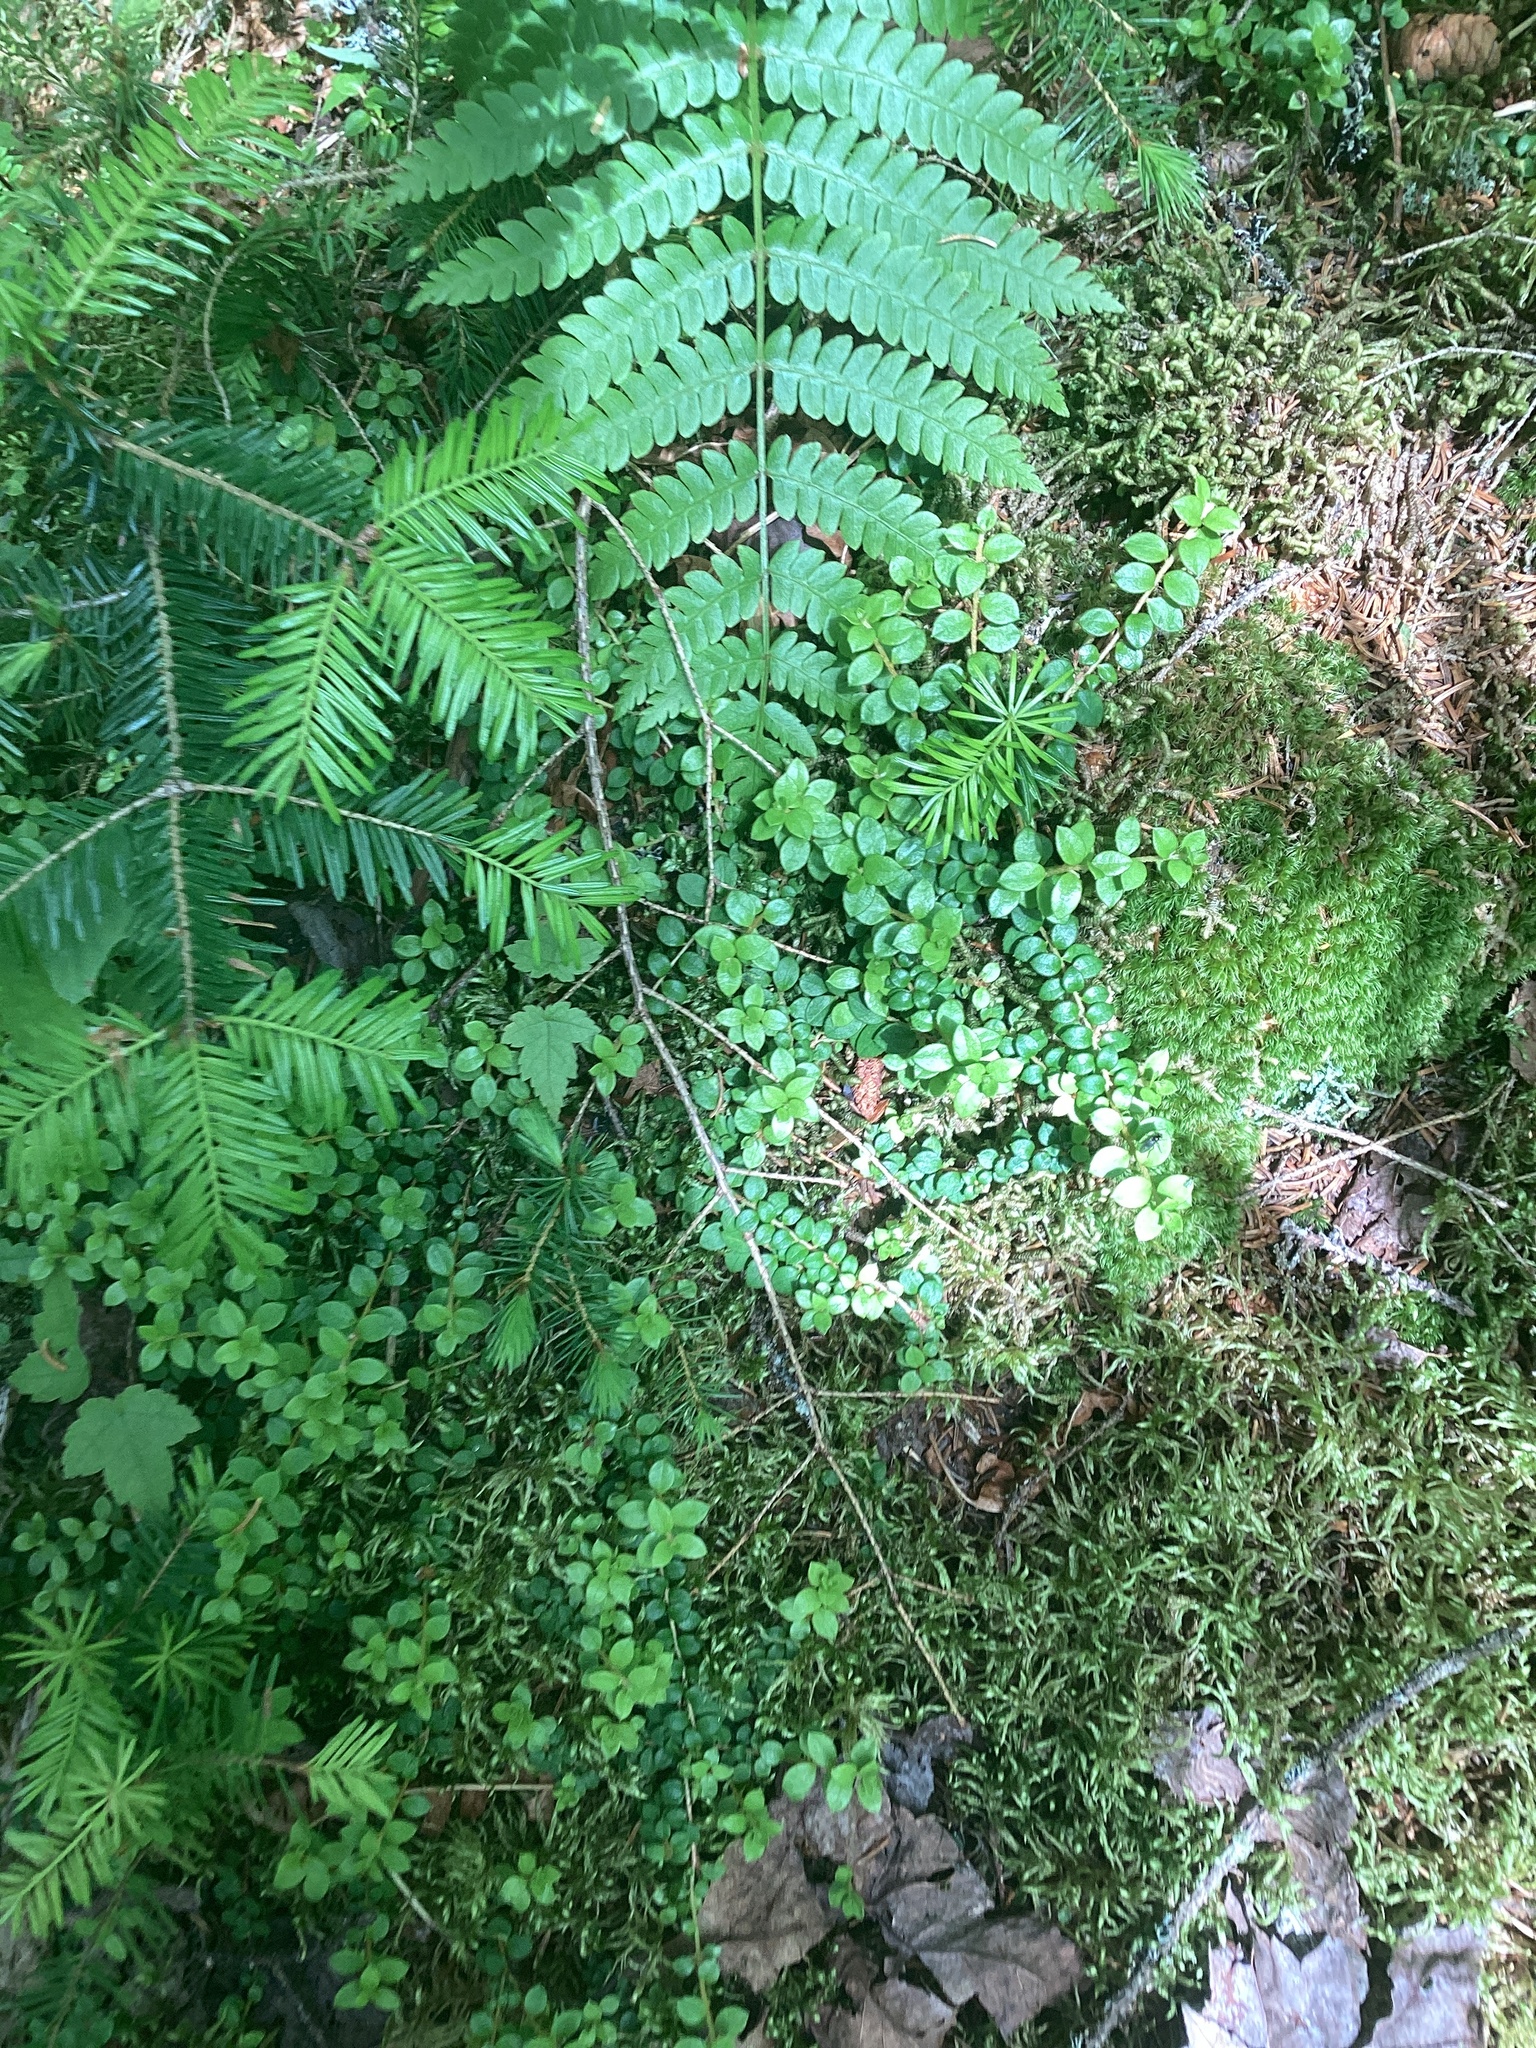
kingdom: Plantae
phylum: Tracheophyta
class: Magnoliopsida
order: Ericales
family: Ericaceae
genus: Gaultheria
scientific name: Gaultheria hispidula
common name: Cancer wintergreen
